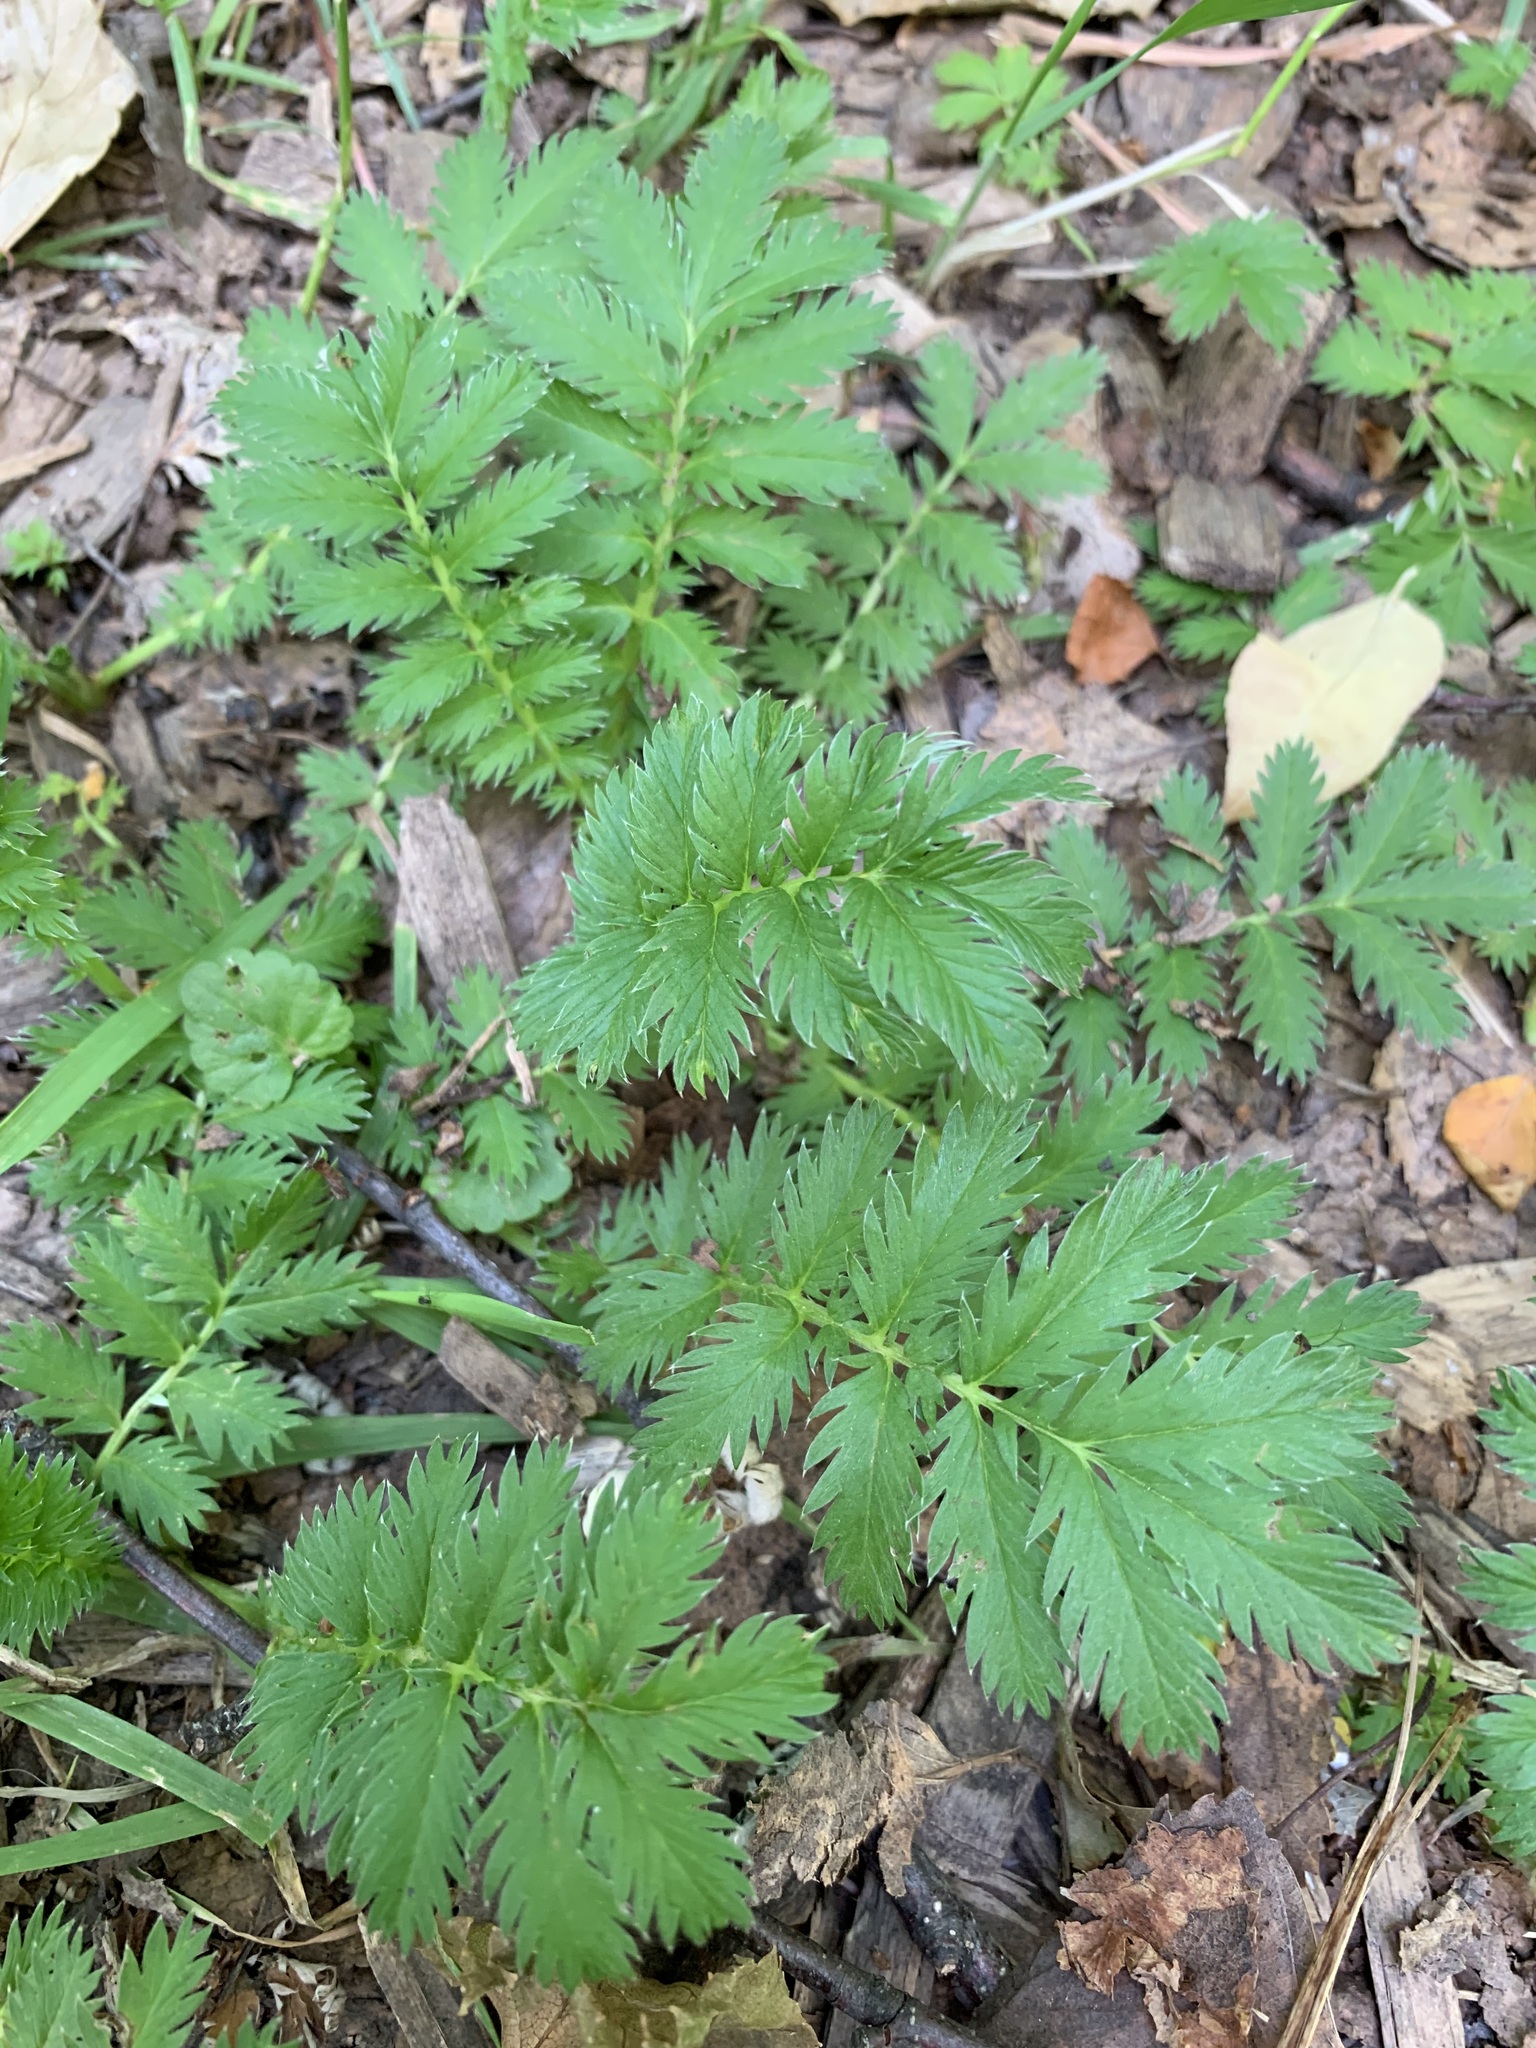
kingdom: Plantae
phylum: Tracheophyta
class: Magnoliopsida
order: Rosales
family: Rosaceae
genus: Argentina
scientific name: Argentina anserina
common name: Common silverweed
